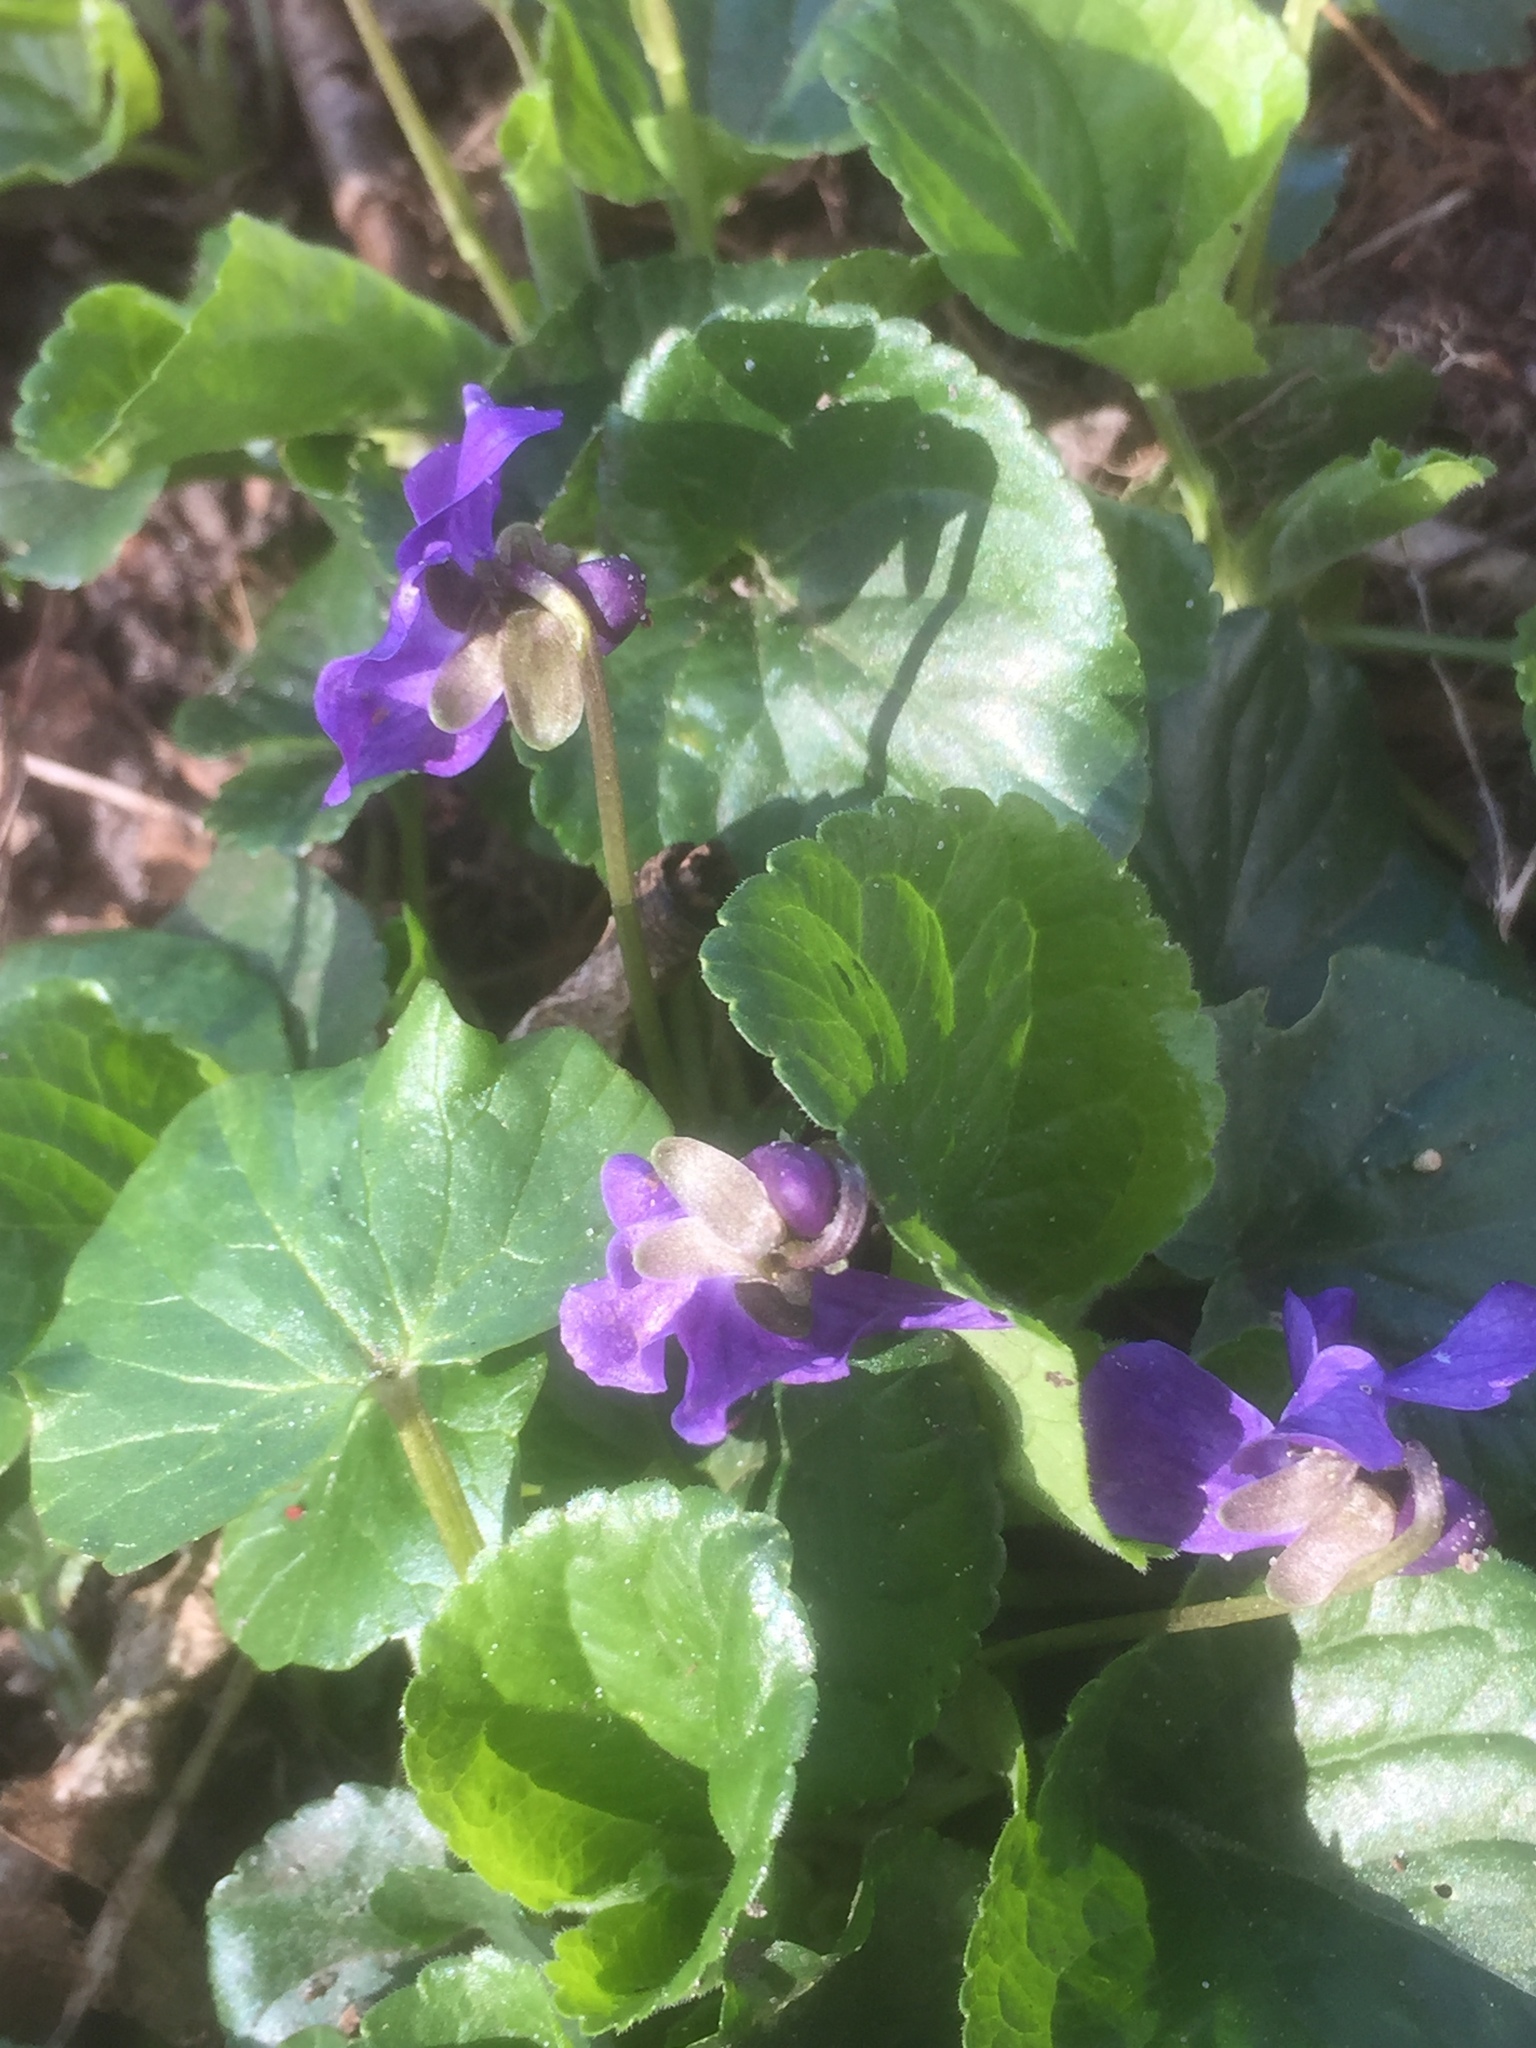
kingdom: Plantae
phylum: Tracheophyta
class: Magnoliopsida
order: Malpighiales
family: Violaceae
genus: Viola
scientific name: Viola odorata
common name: Sweet violet
